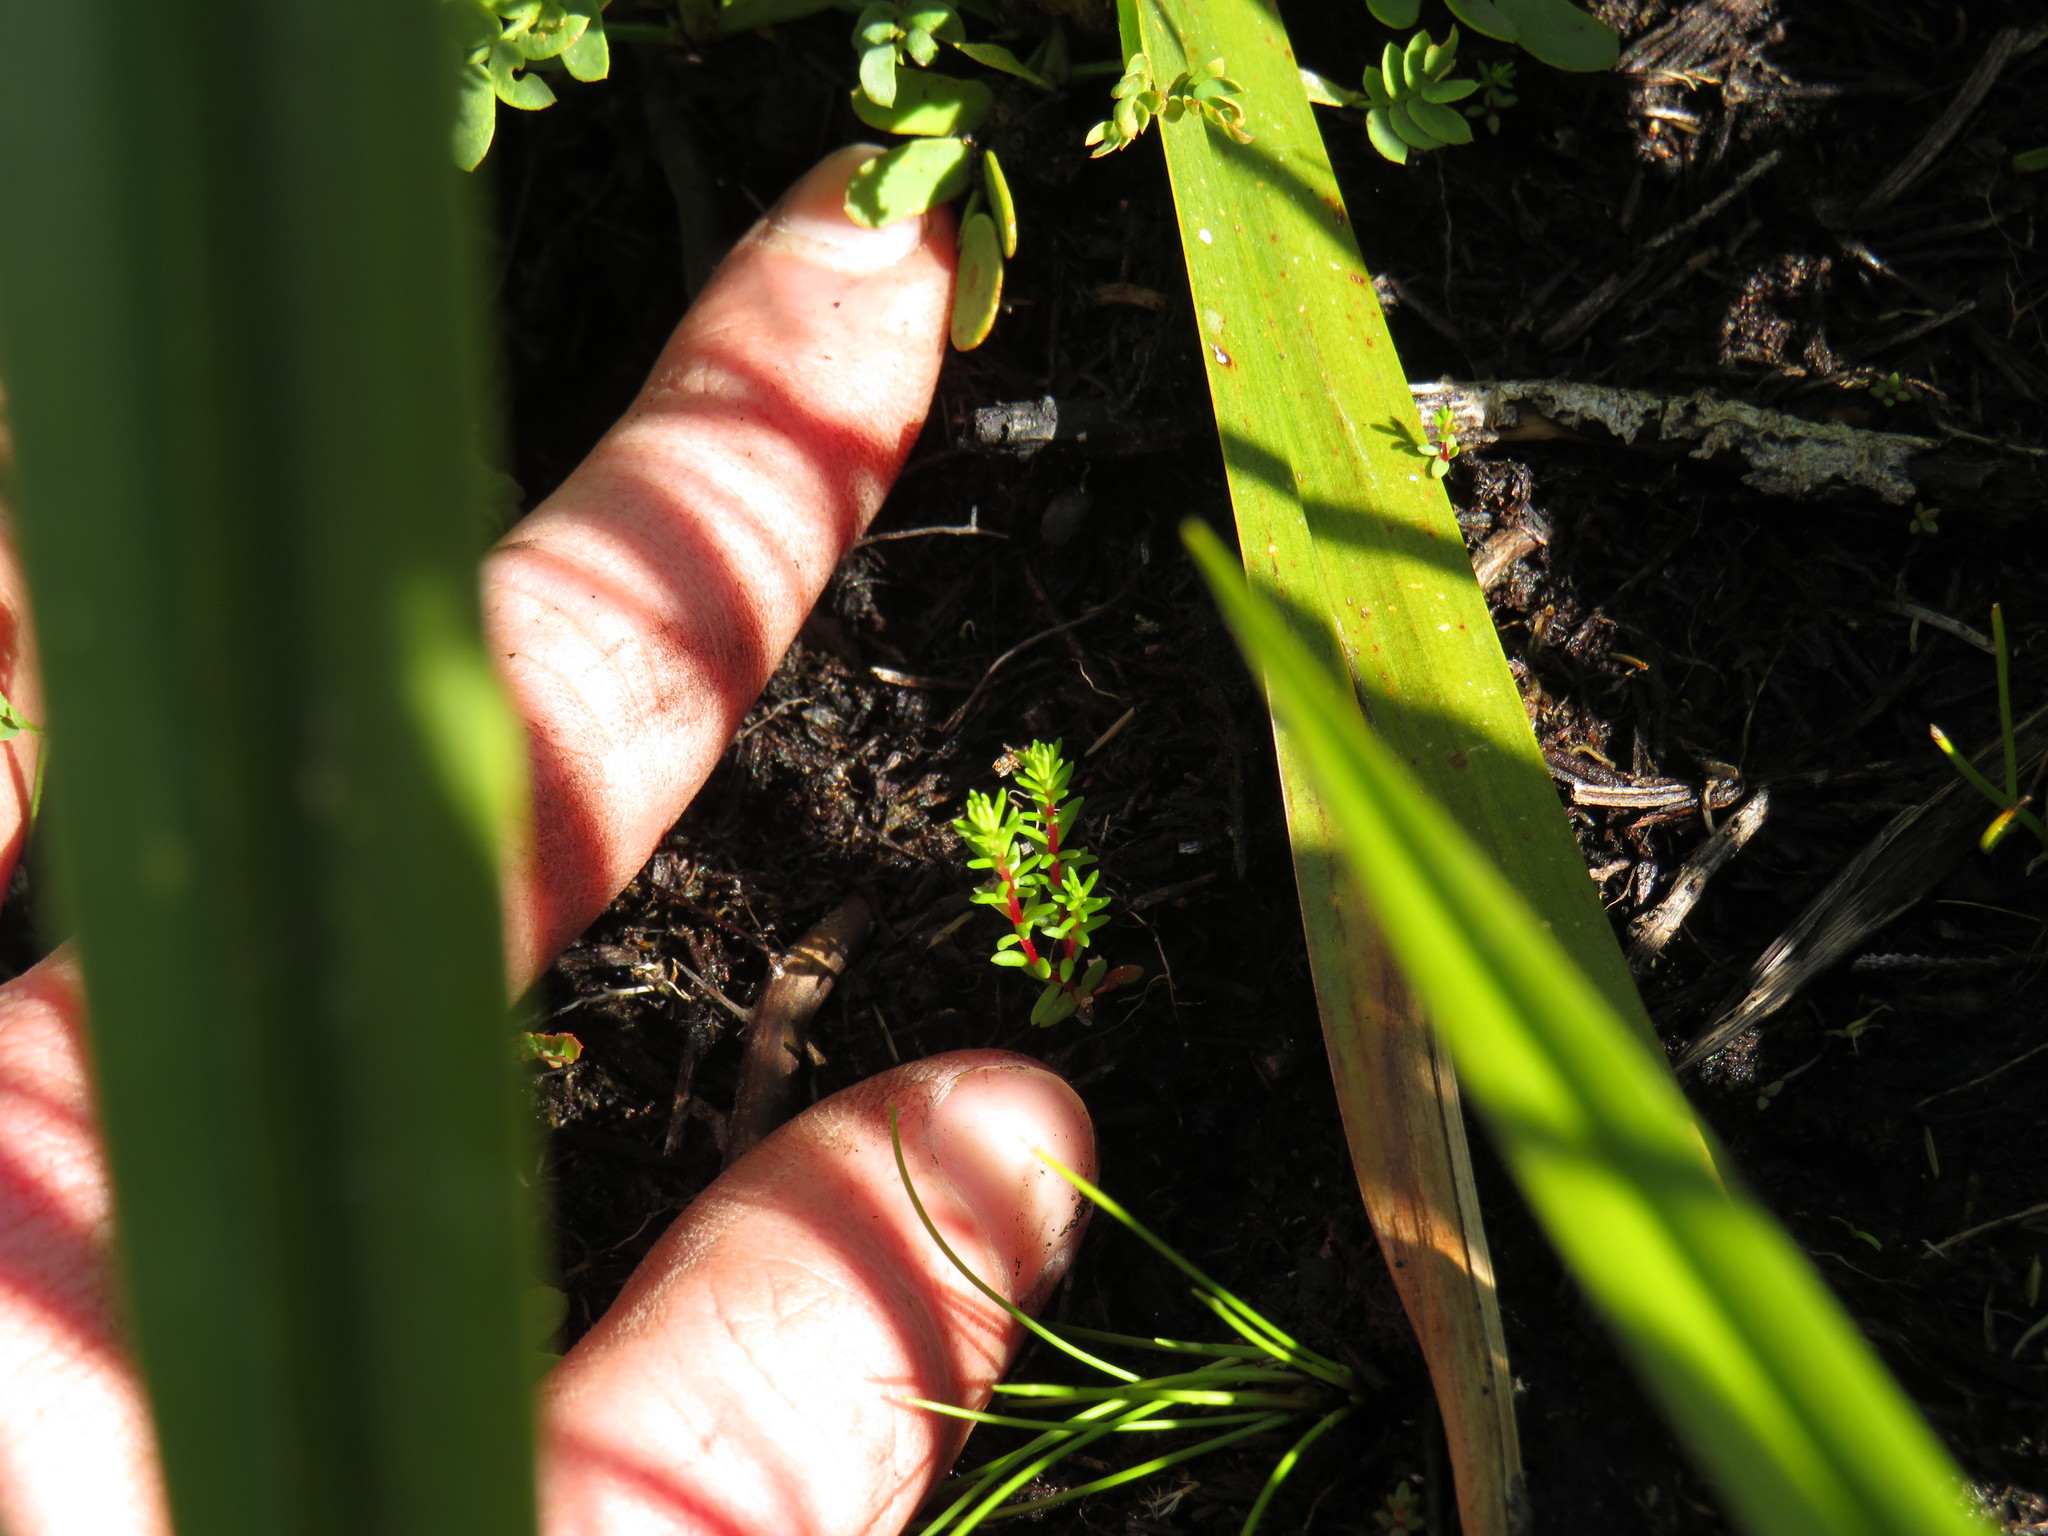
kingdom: Plantae
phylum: Tracheophyta
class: Magnoliopsida
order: Ericales
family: Ericaceae
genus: Erica
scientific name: Erica verticillata
